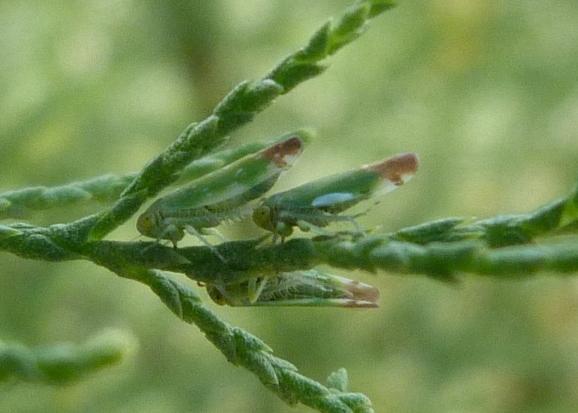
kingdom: Animalia
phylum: Arthropoda
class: Insecta
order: Hemiptera
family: Cicadellidae
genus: Opsius
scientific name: Opsius stactogalus
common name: Leafhopper
